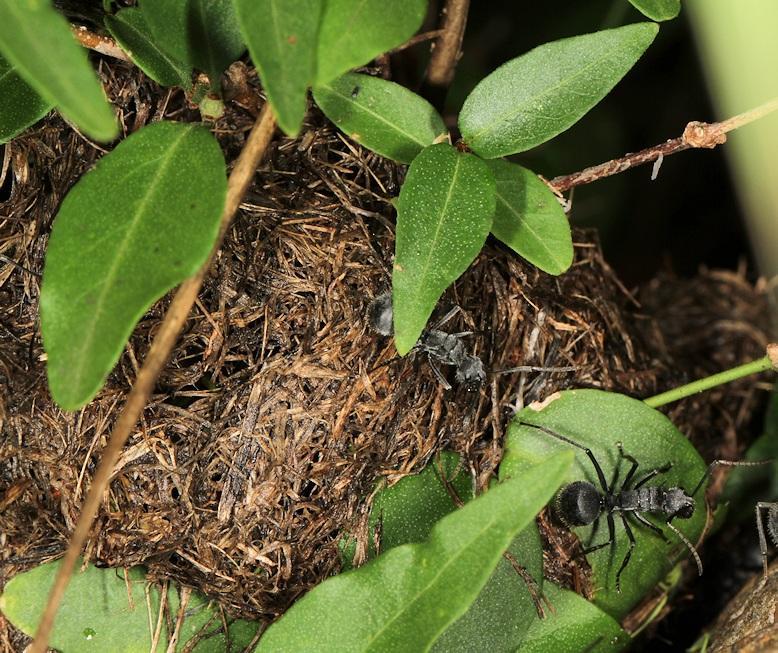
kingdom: Animalia
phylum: Arthropoda
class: Insecta
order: Hymenoptera
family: Formicidae
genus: Polyrhachis
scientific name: Polyrhachis schistacea
